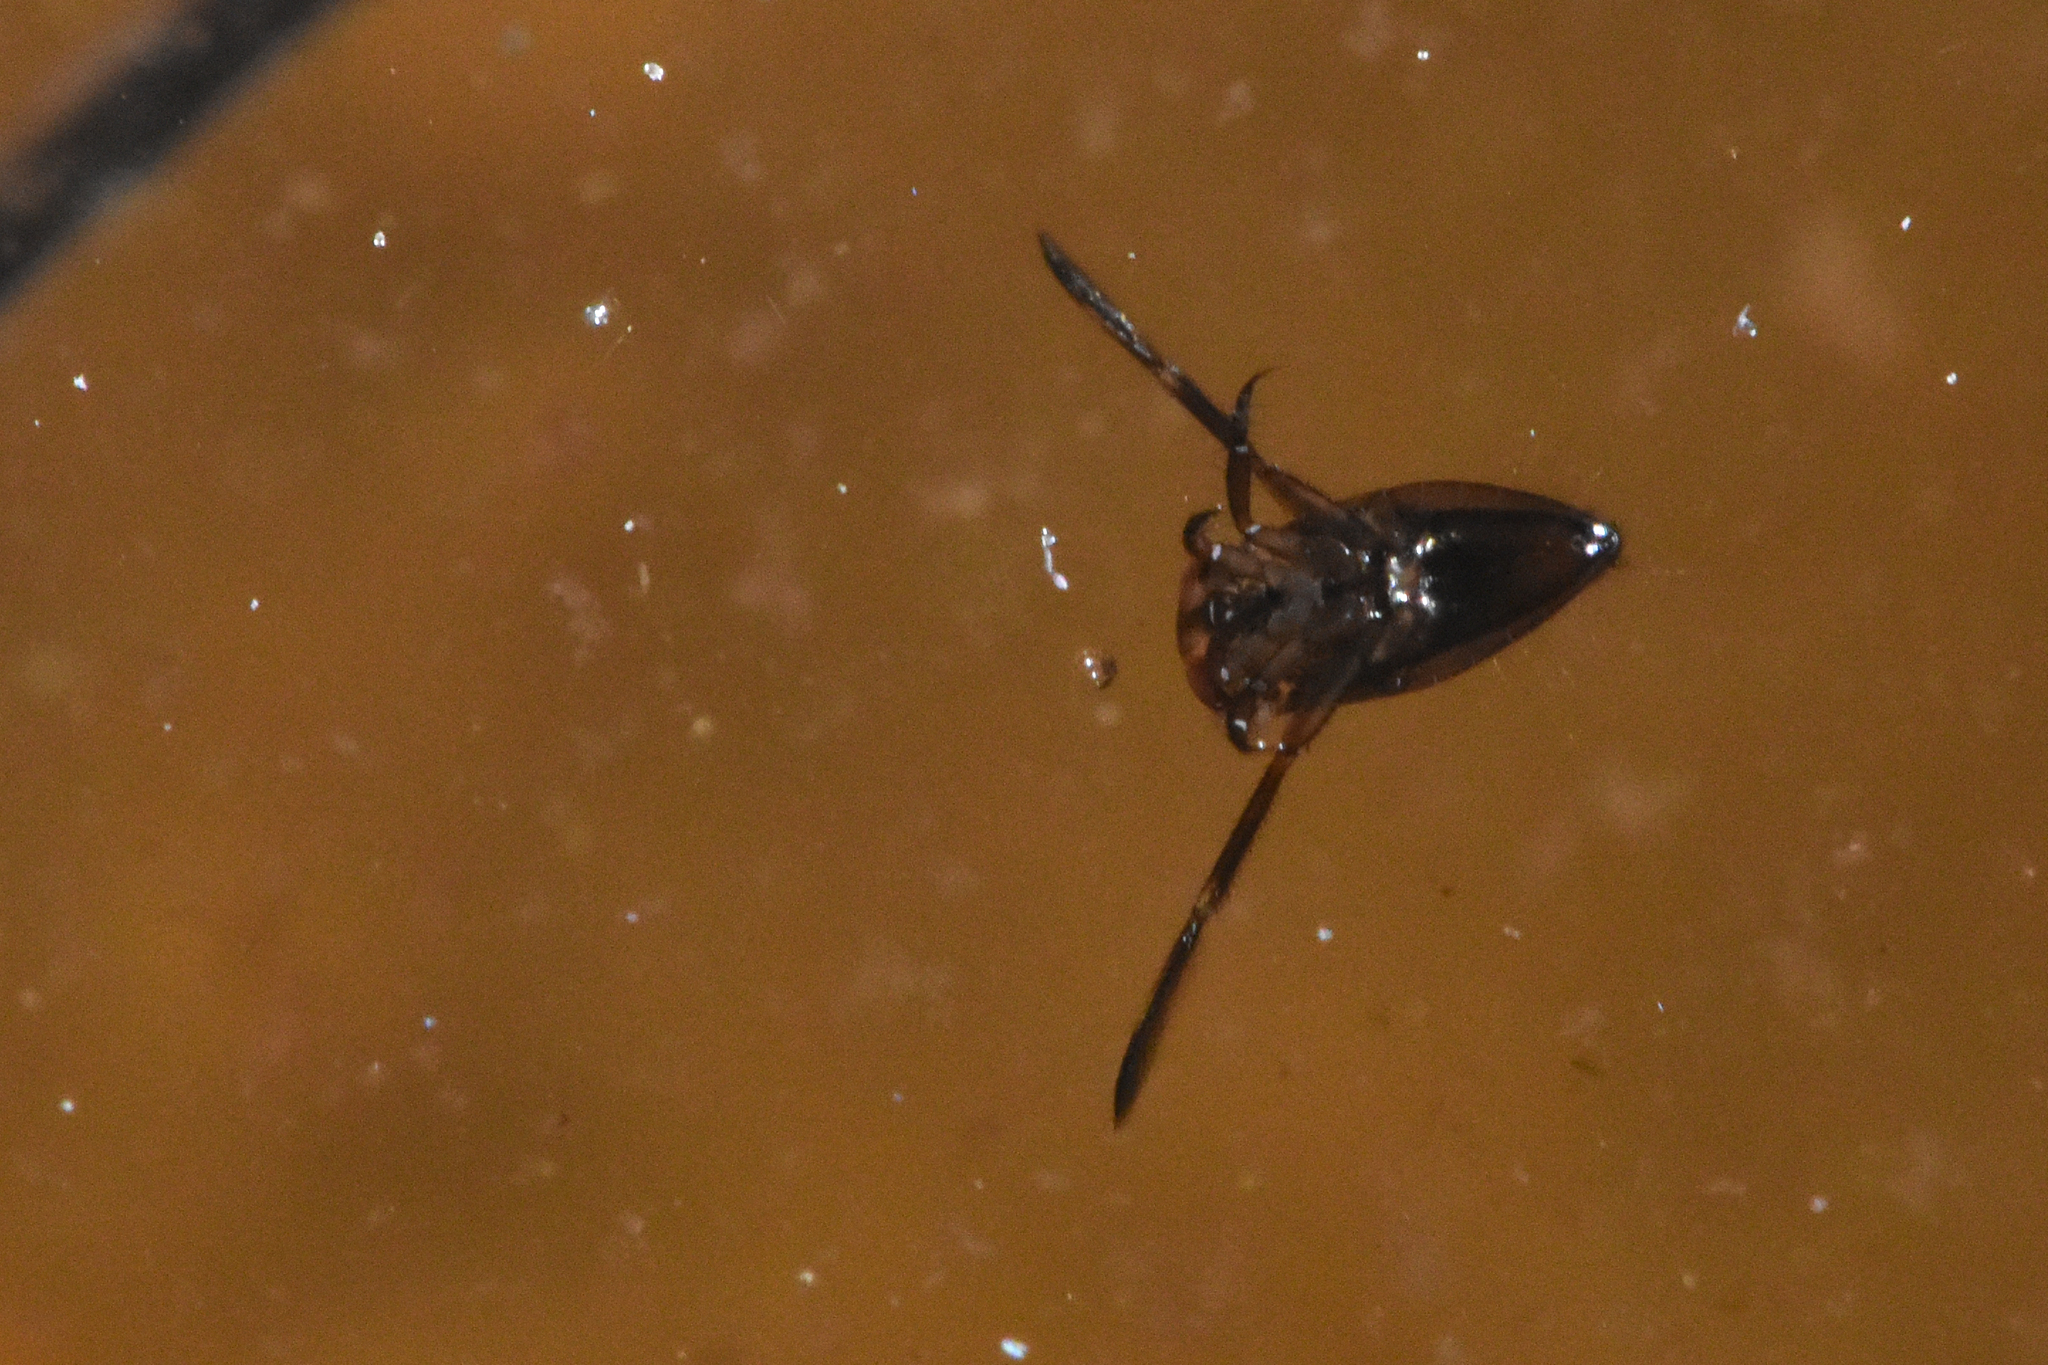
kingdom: Animalia
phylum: Arthropoda
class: Insecta
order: Hemiptera
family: Notonectidae
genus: Notonecta
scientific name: Notonecta
